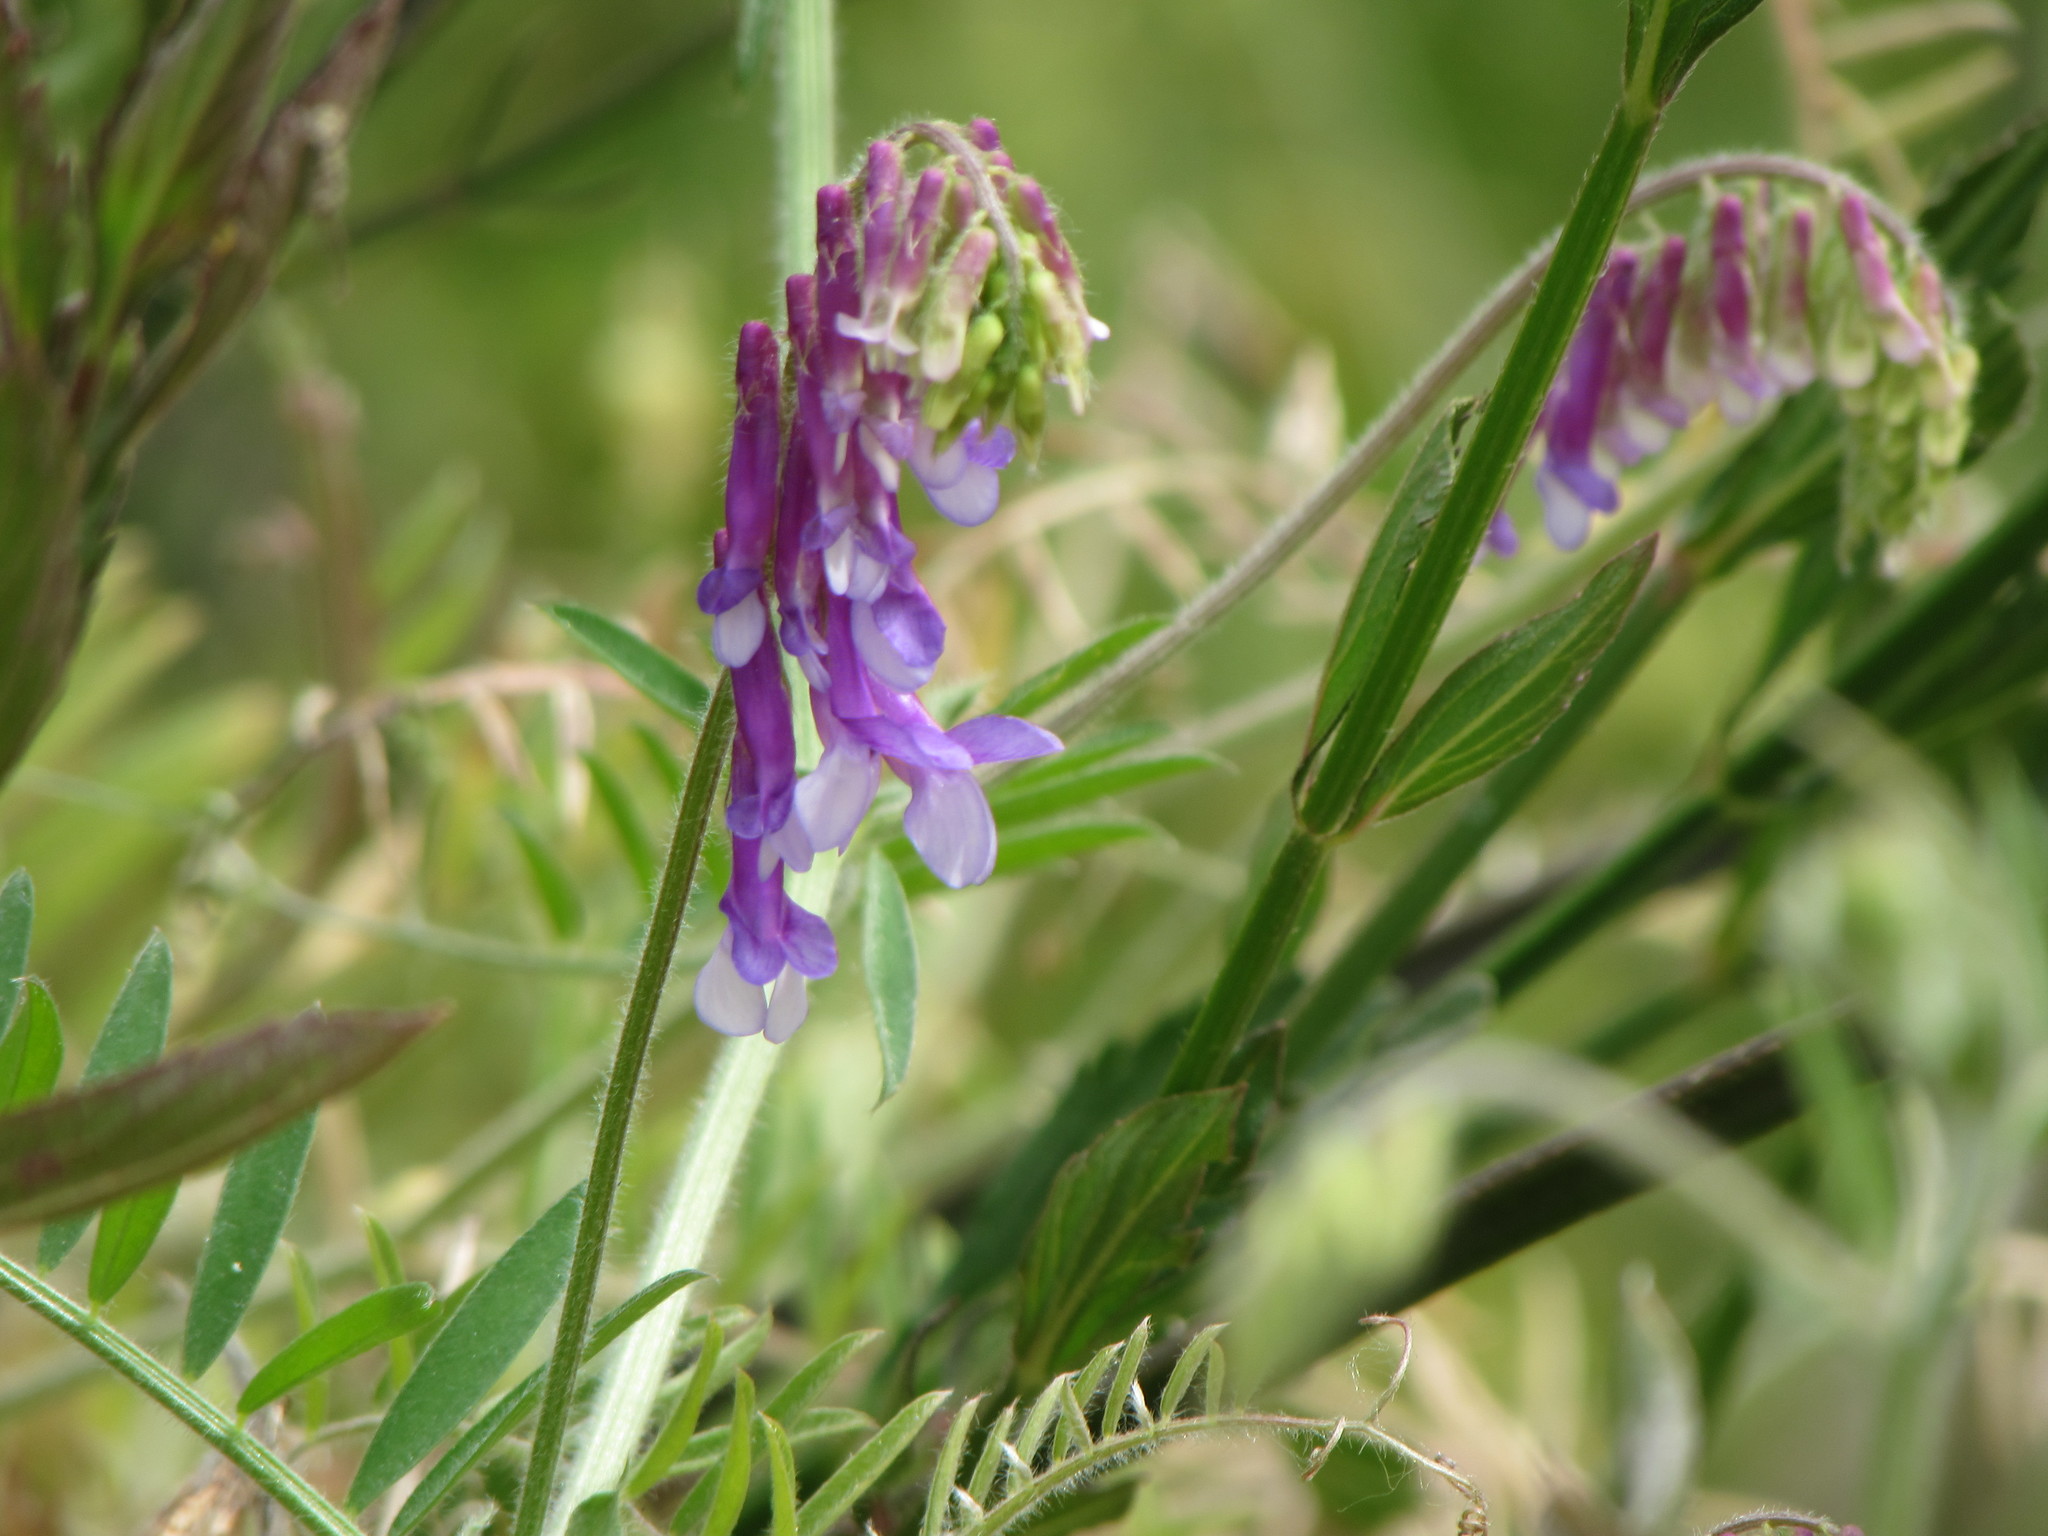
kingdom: Plantae
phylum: Tracheophyta
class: Magnoliopsida
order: Fabales
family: Fabaceae
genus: Vicia
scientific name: Vicia villosa
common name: Fodder vetch
